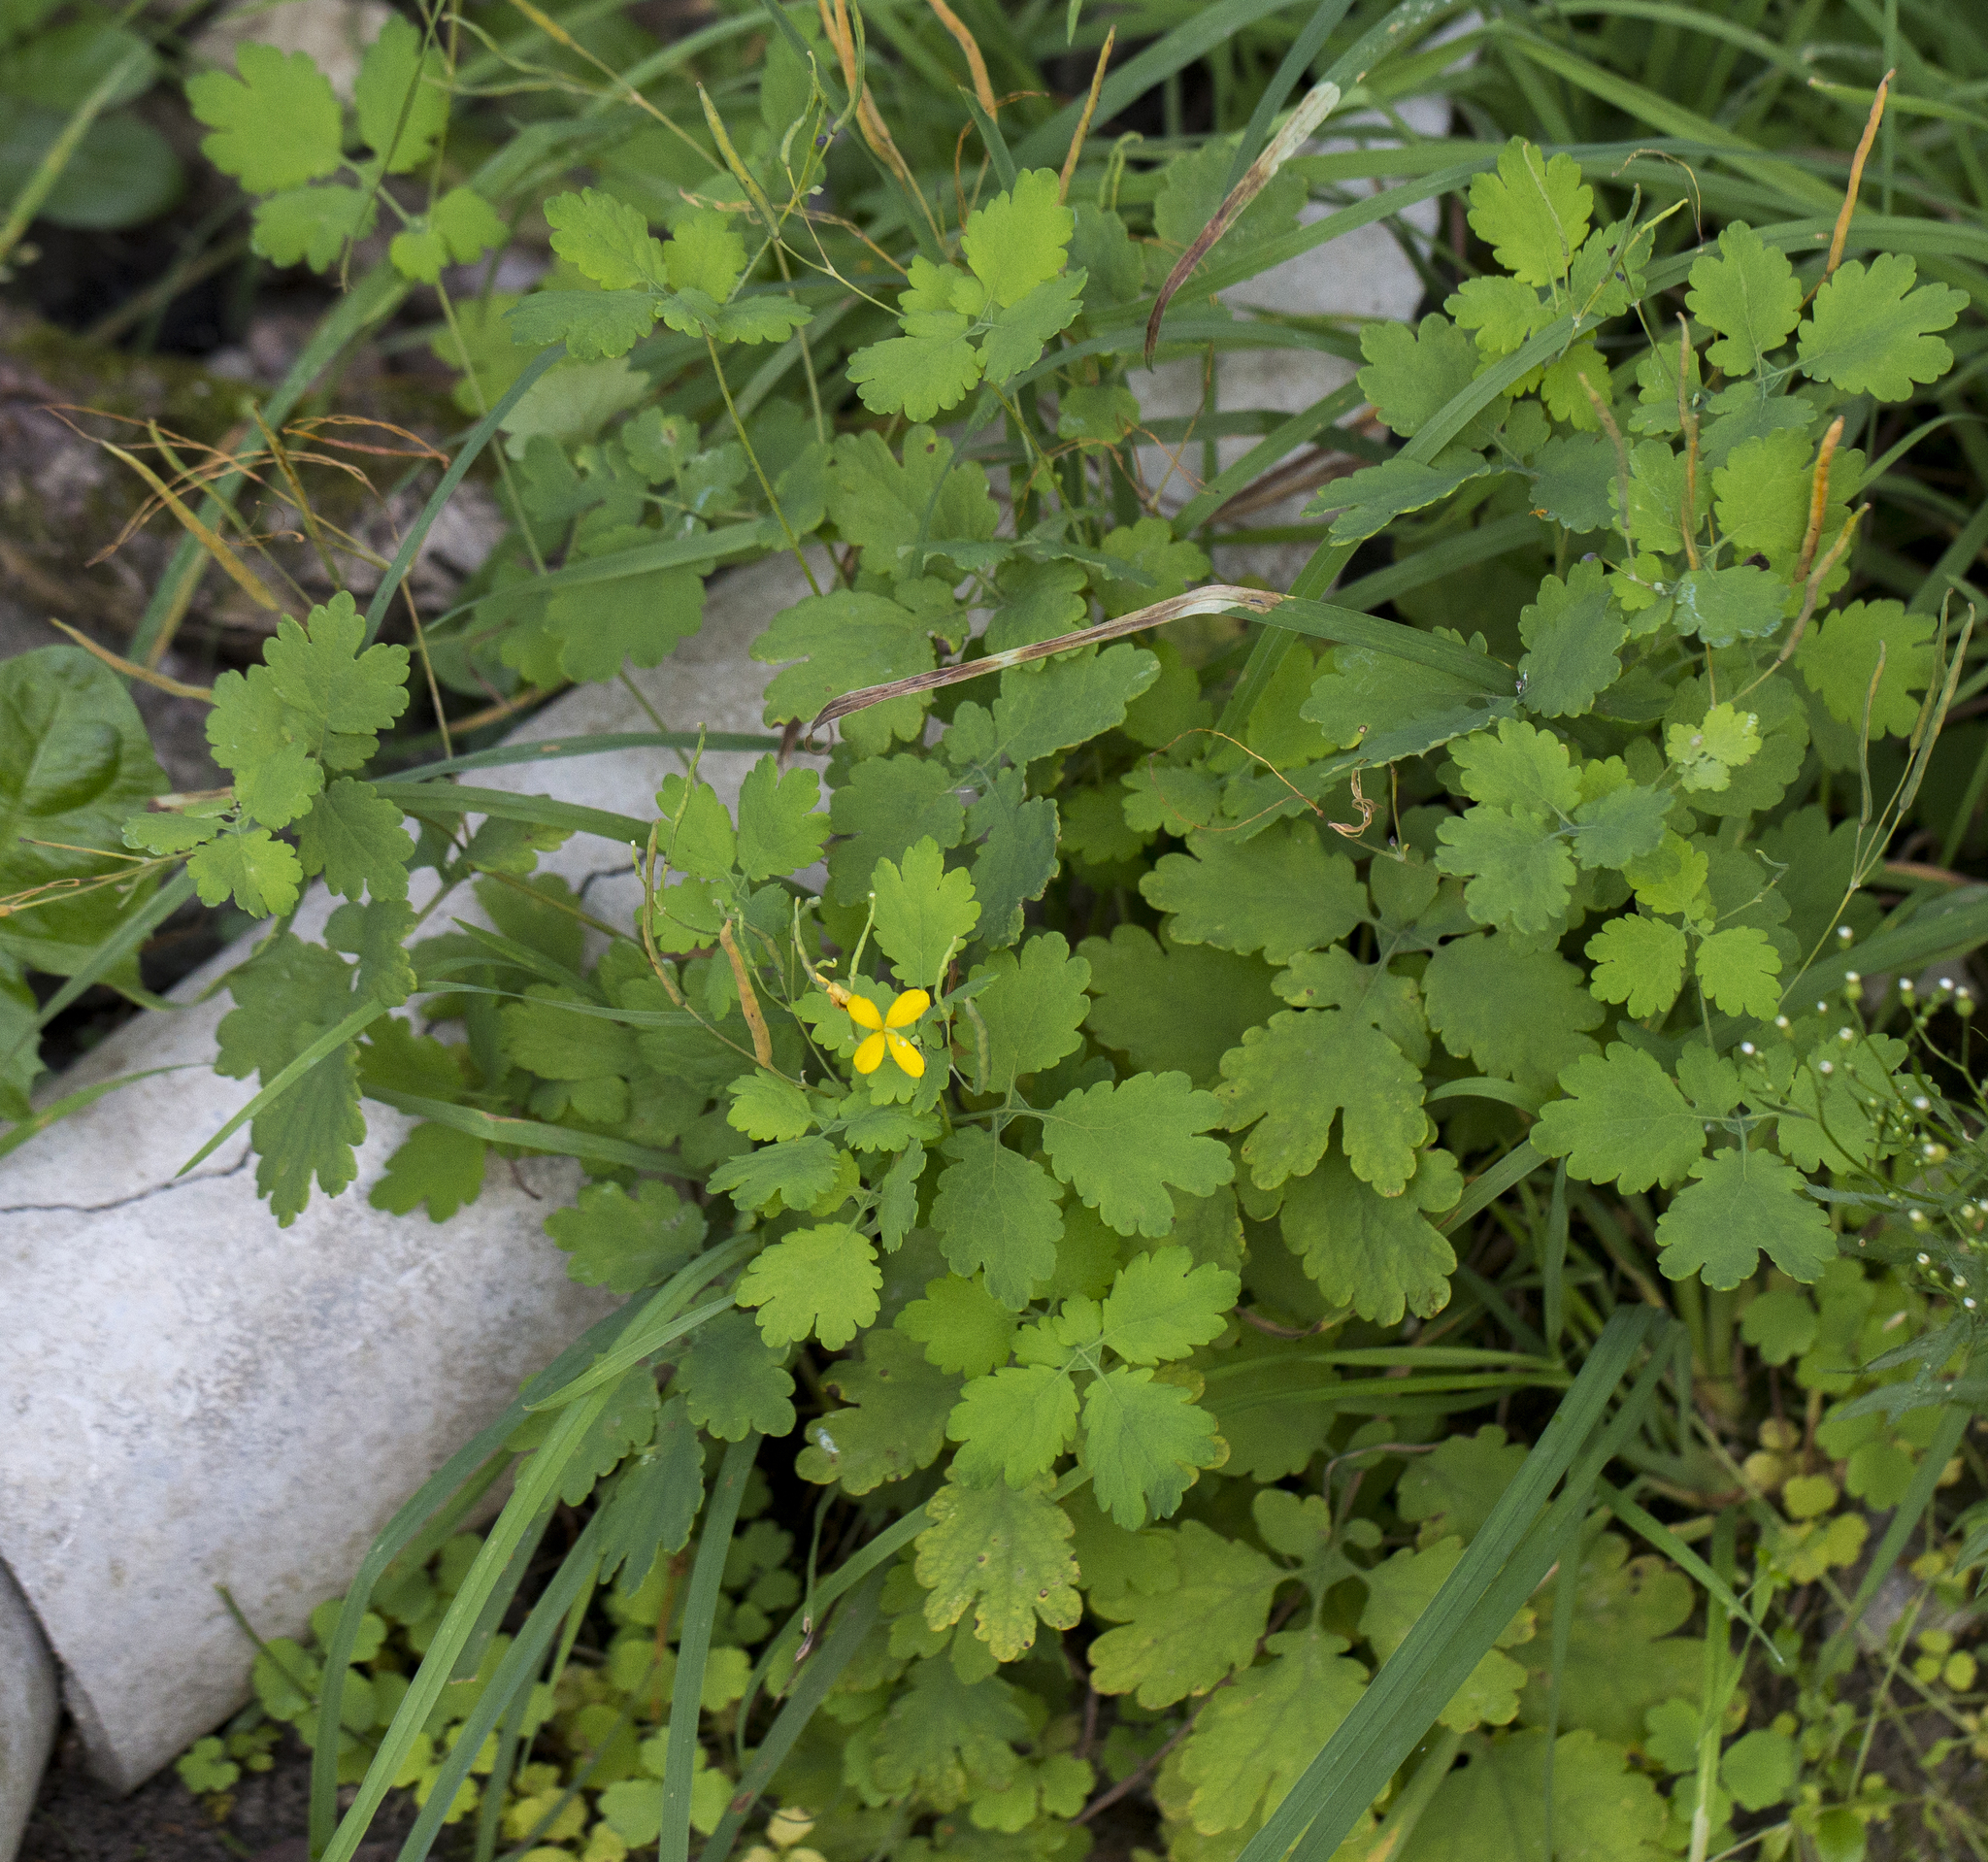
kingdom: Plantae
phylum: Tracheophyta
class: Magnoliopsida
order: Ranunculales
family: Papaveraceae
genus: Chelidonium
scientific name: Chelidonium majus
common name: Greater celandine
